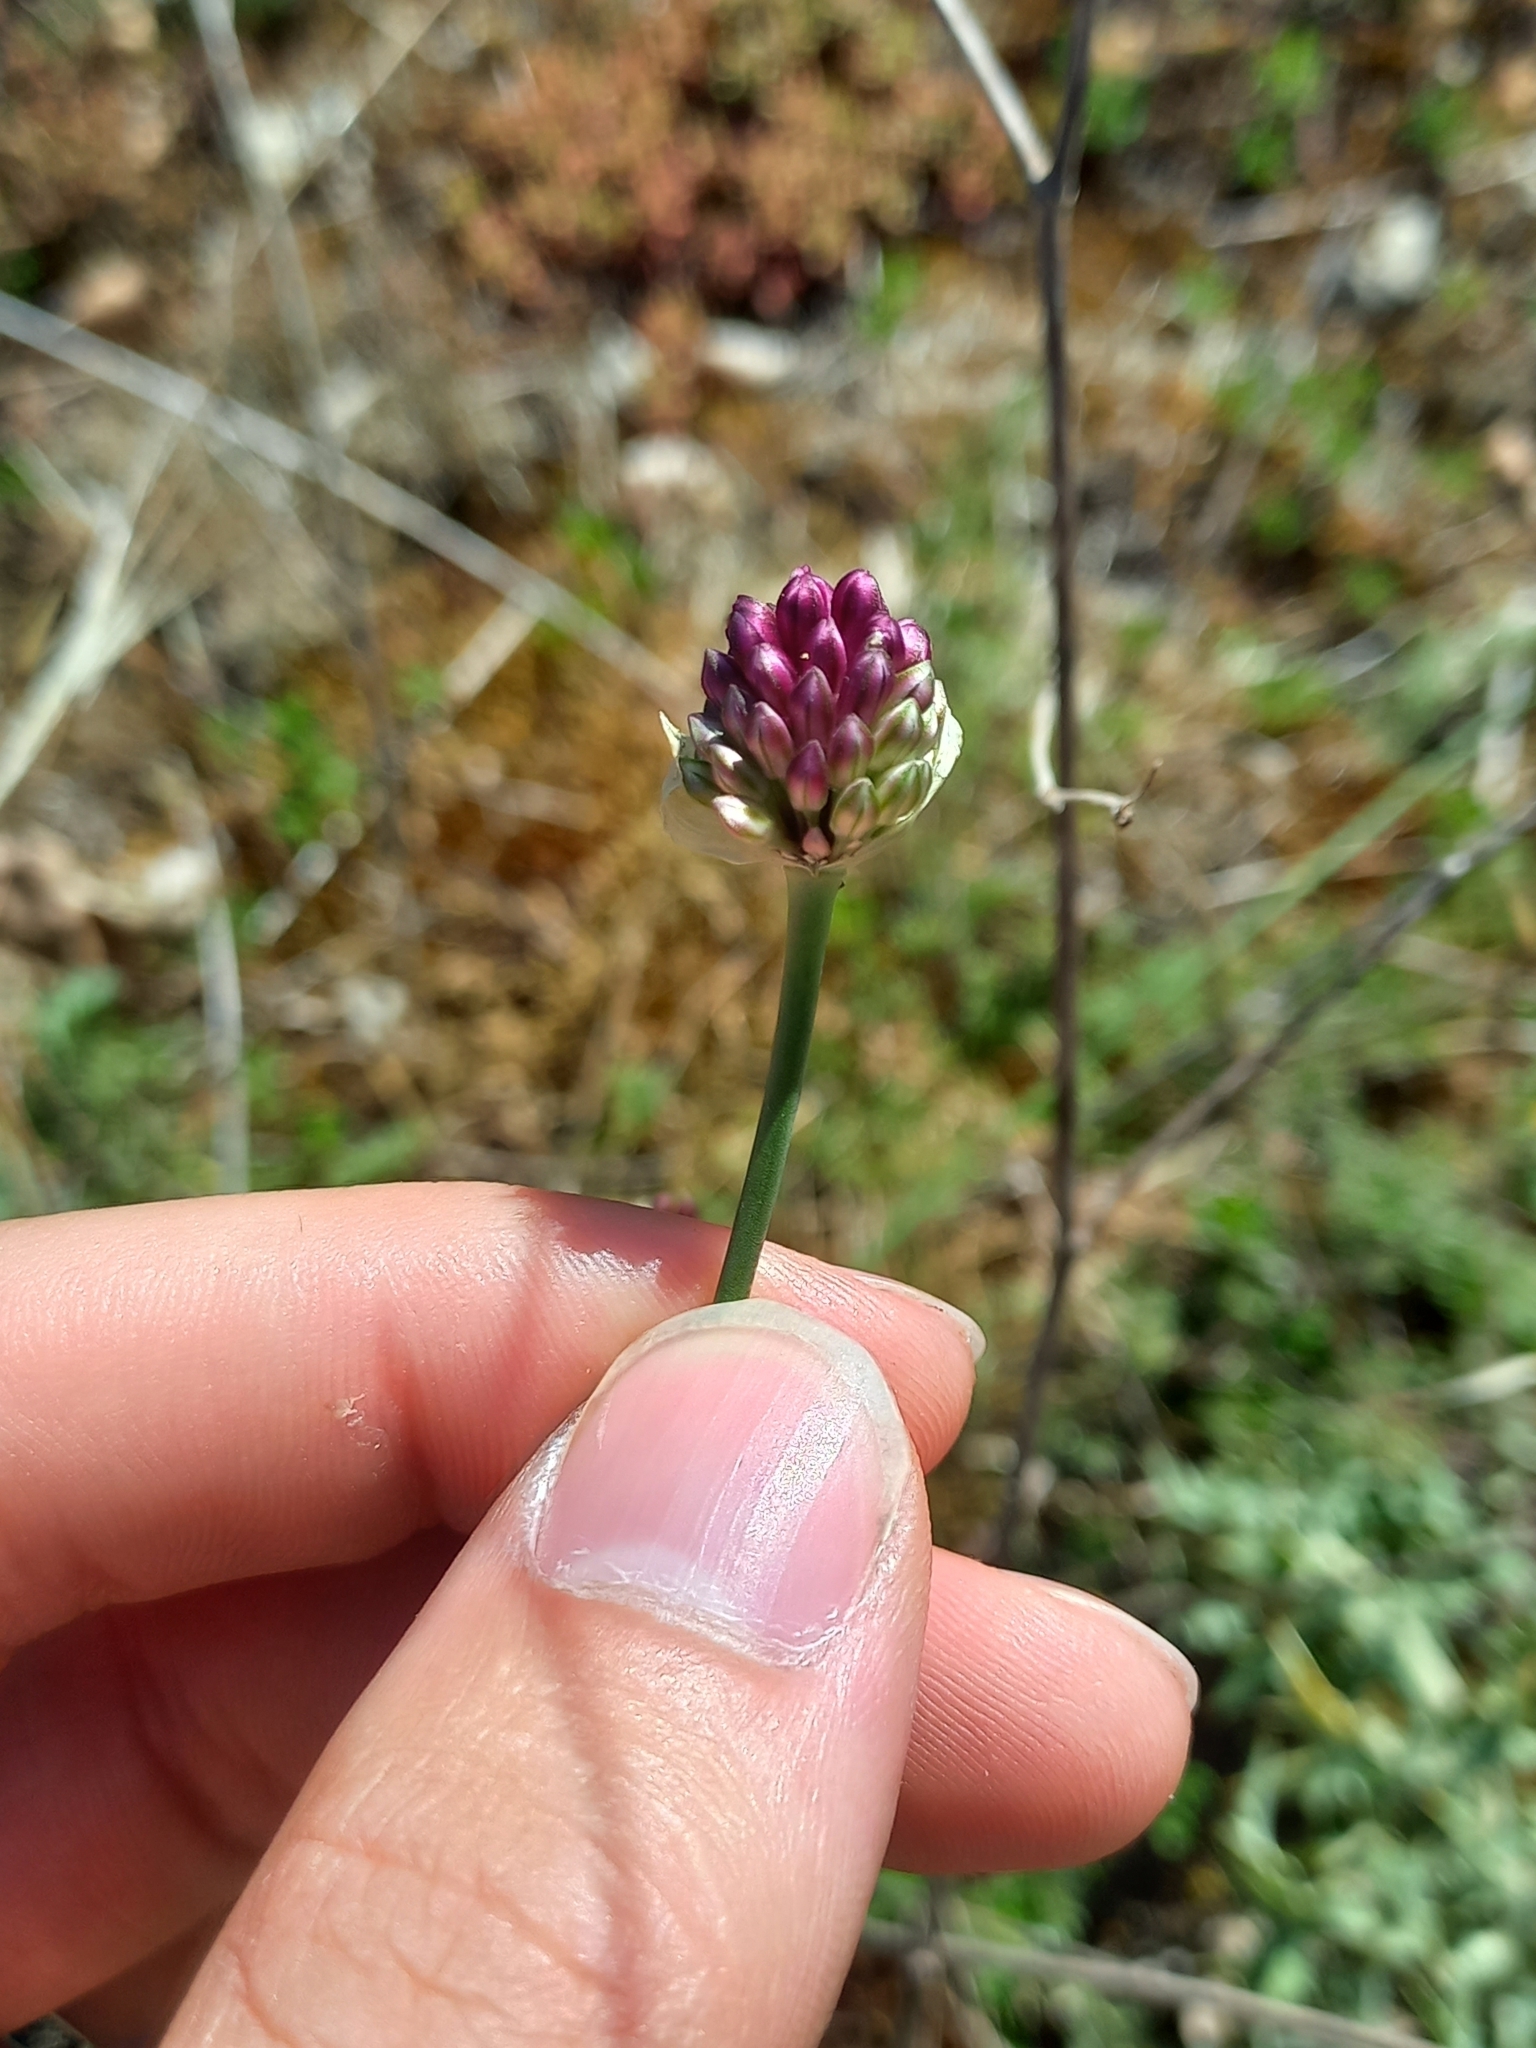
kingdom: Plantae
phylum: Tracheophyta
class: Liliopsida
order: Asparagales
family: Amaryllidaceae
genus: Allium
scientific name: Allium sphaerocephalon
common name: Round-headed leek
